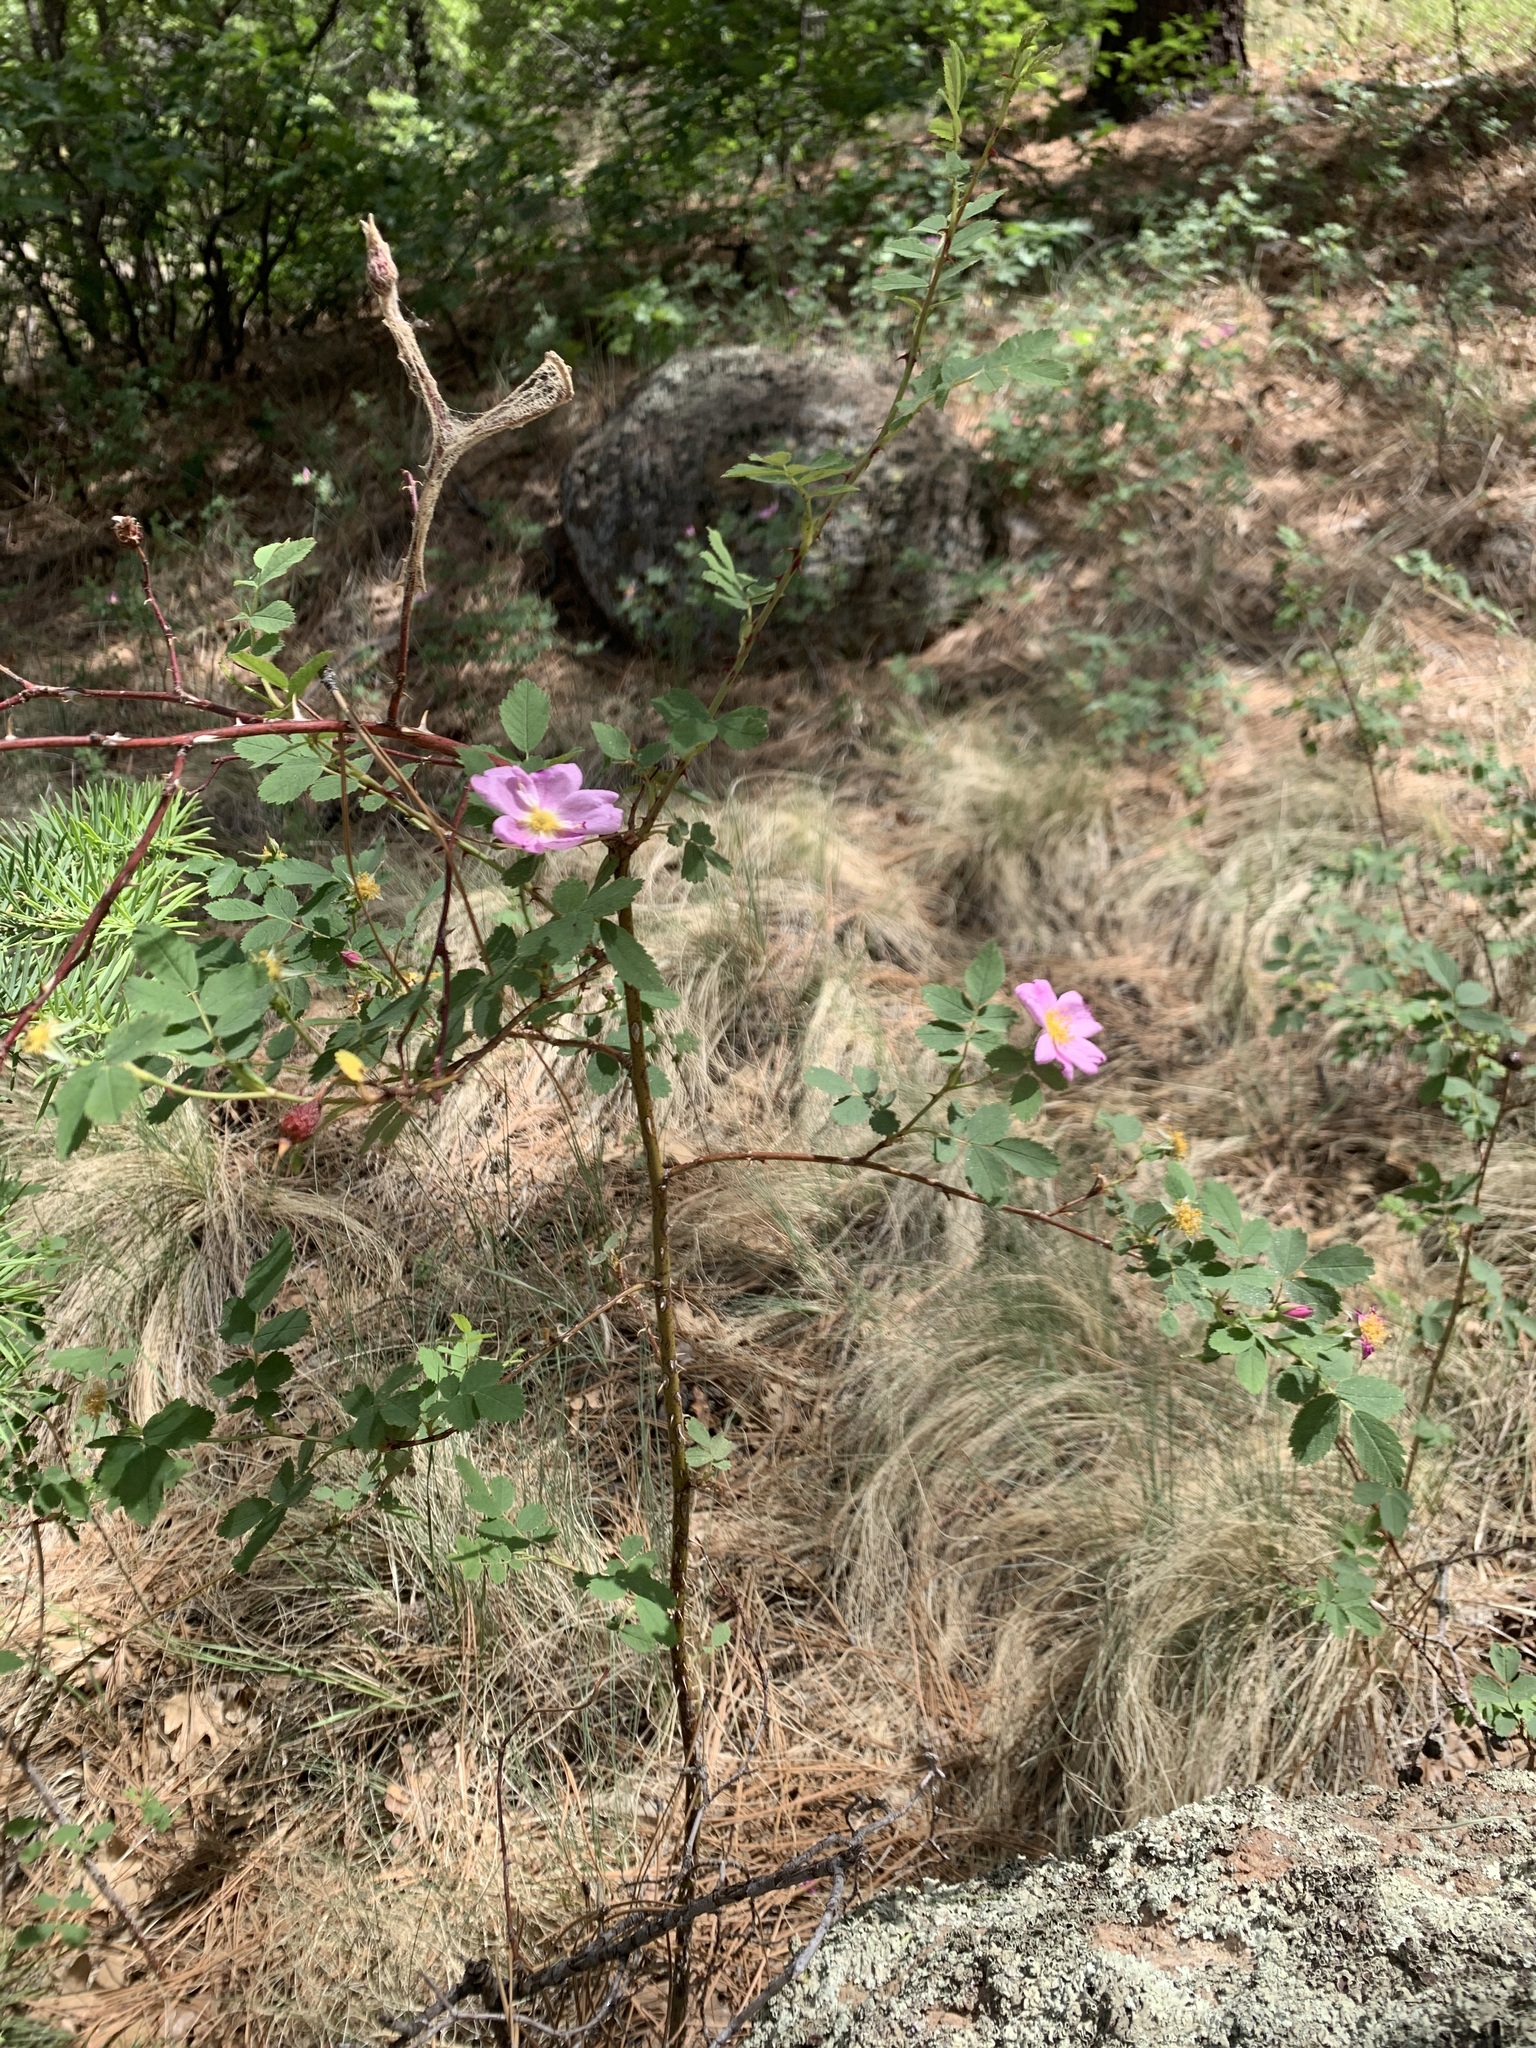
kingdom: Plantae
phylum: Tracheophyta
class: Magnoliopsida
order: Rosales
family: Rosaceae
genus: Rosa
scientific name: Rosa woodsii
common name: Woods's rose
